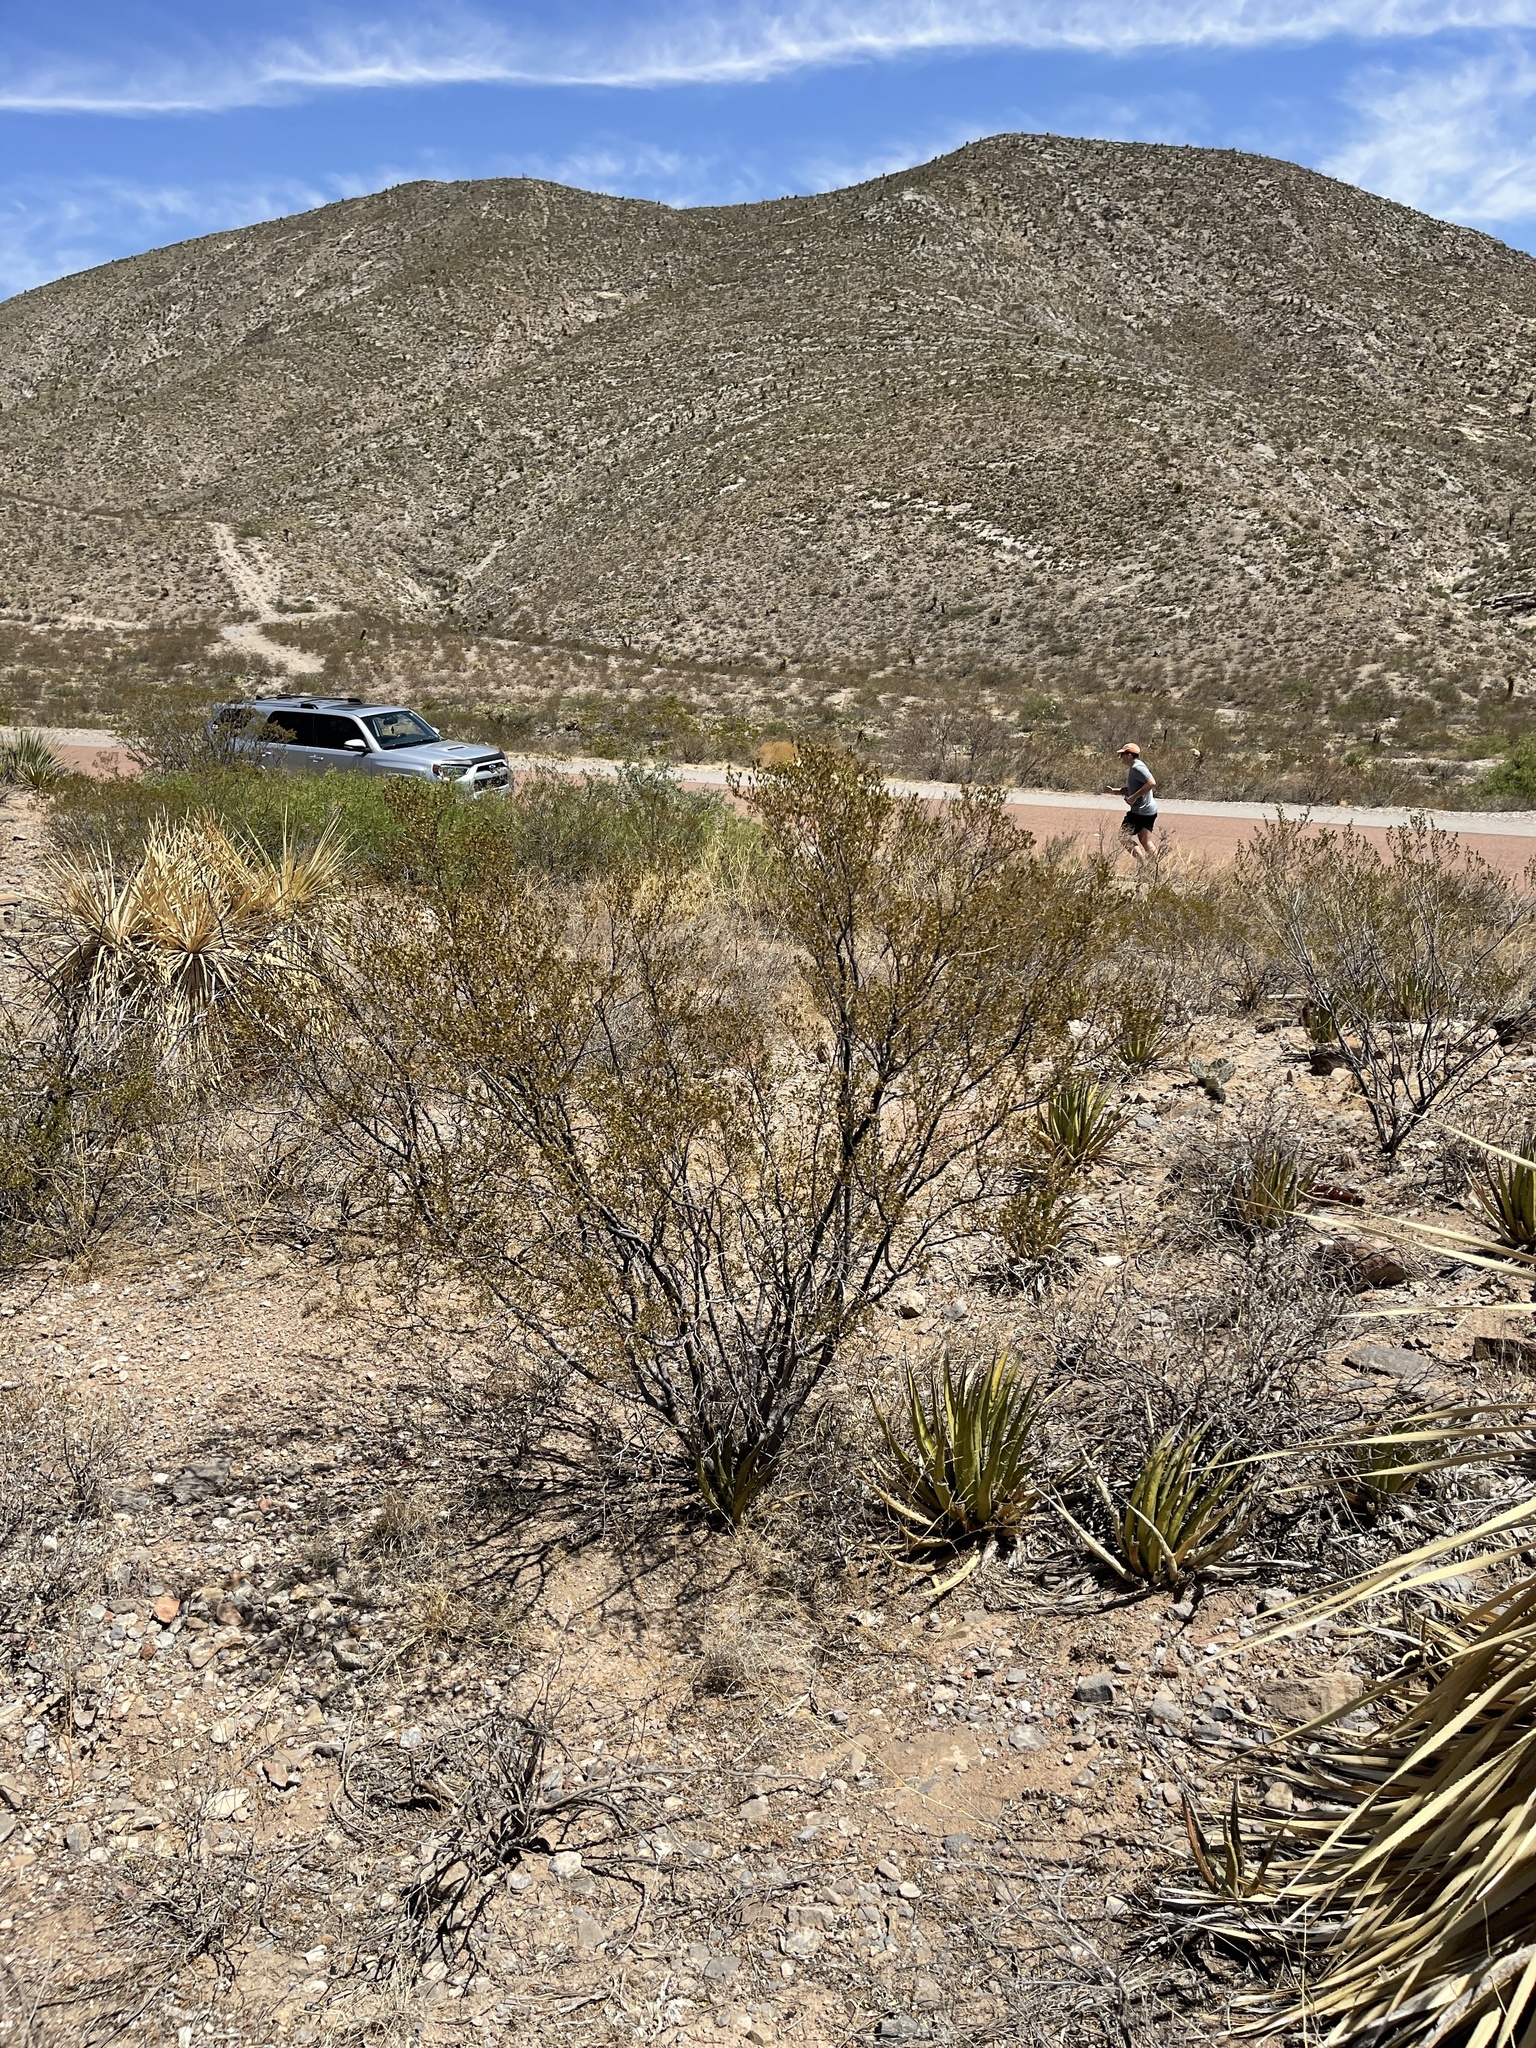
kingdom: Plantae
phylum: Tracheophyta
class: Magnoliopsida
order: Zygophyllales
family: Zygophyllaceae
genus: Larrea
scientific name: Larrea tridentata
